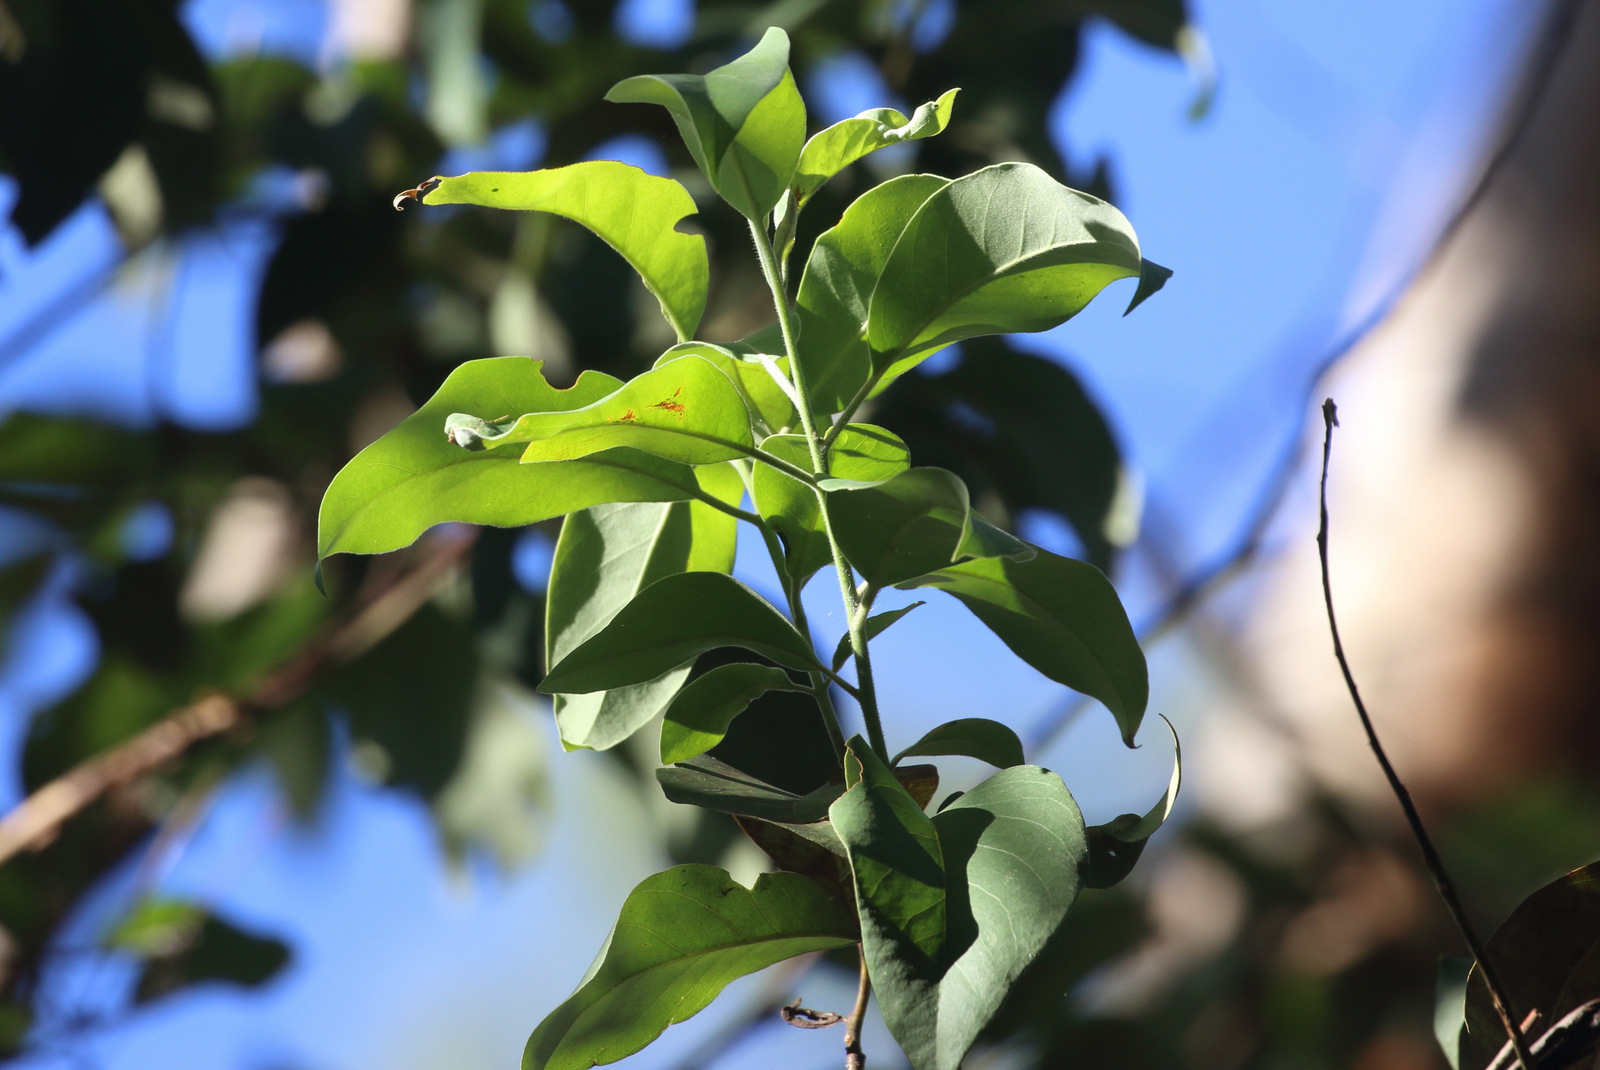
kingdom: Plantae
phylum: Tracheophyta
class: Magnoliopsida
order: Myrtales
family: Myrtaceae
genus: Lophostemon
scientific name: Lophostemon suaveolens
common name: Paperbark-mahogany
